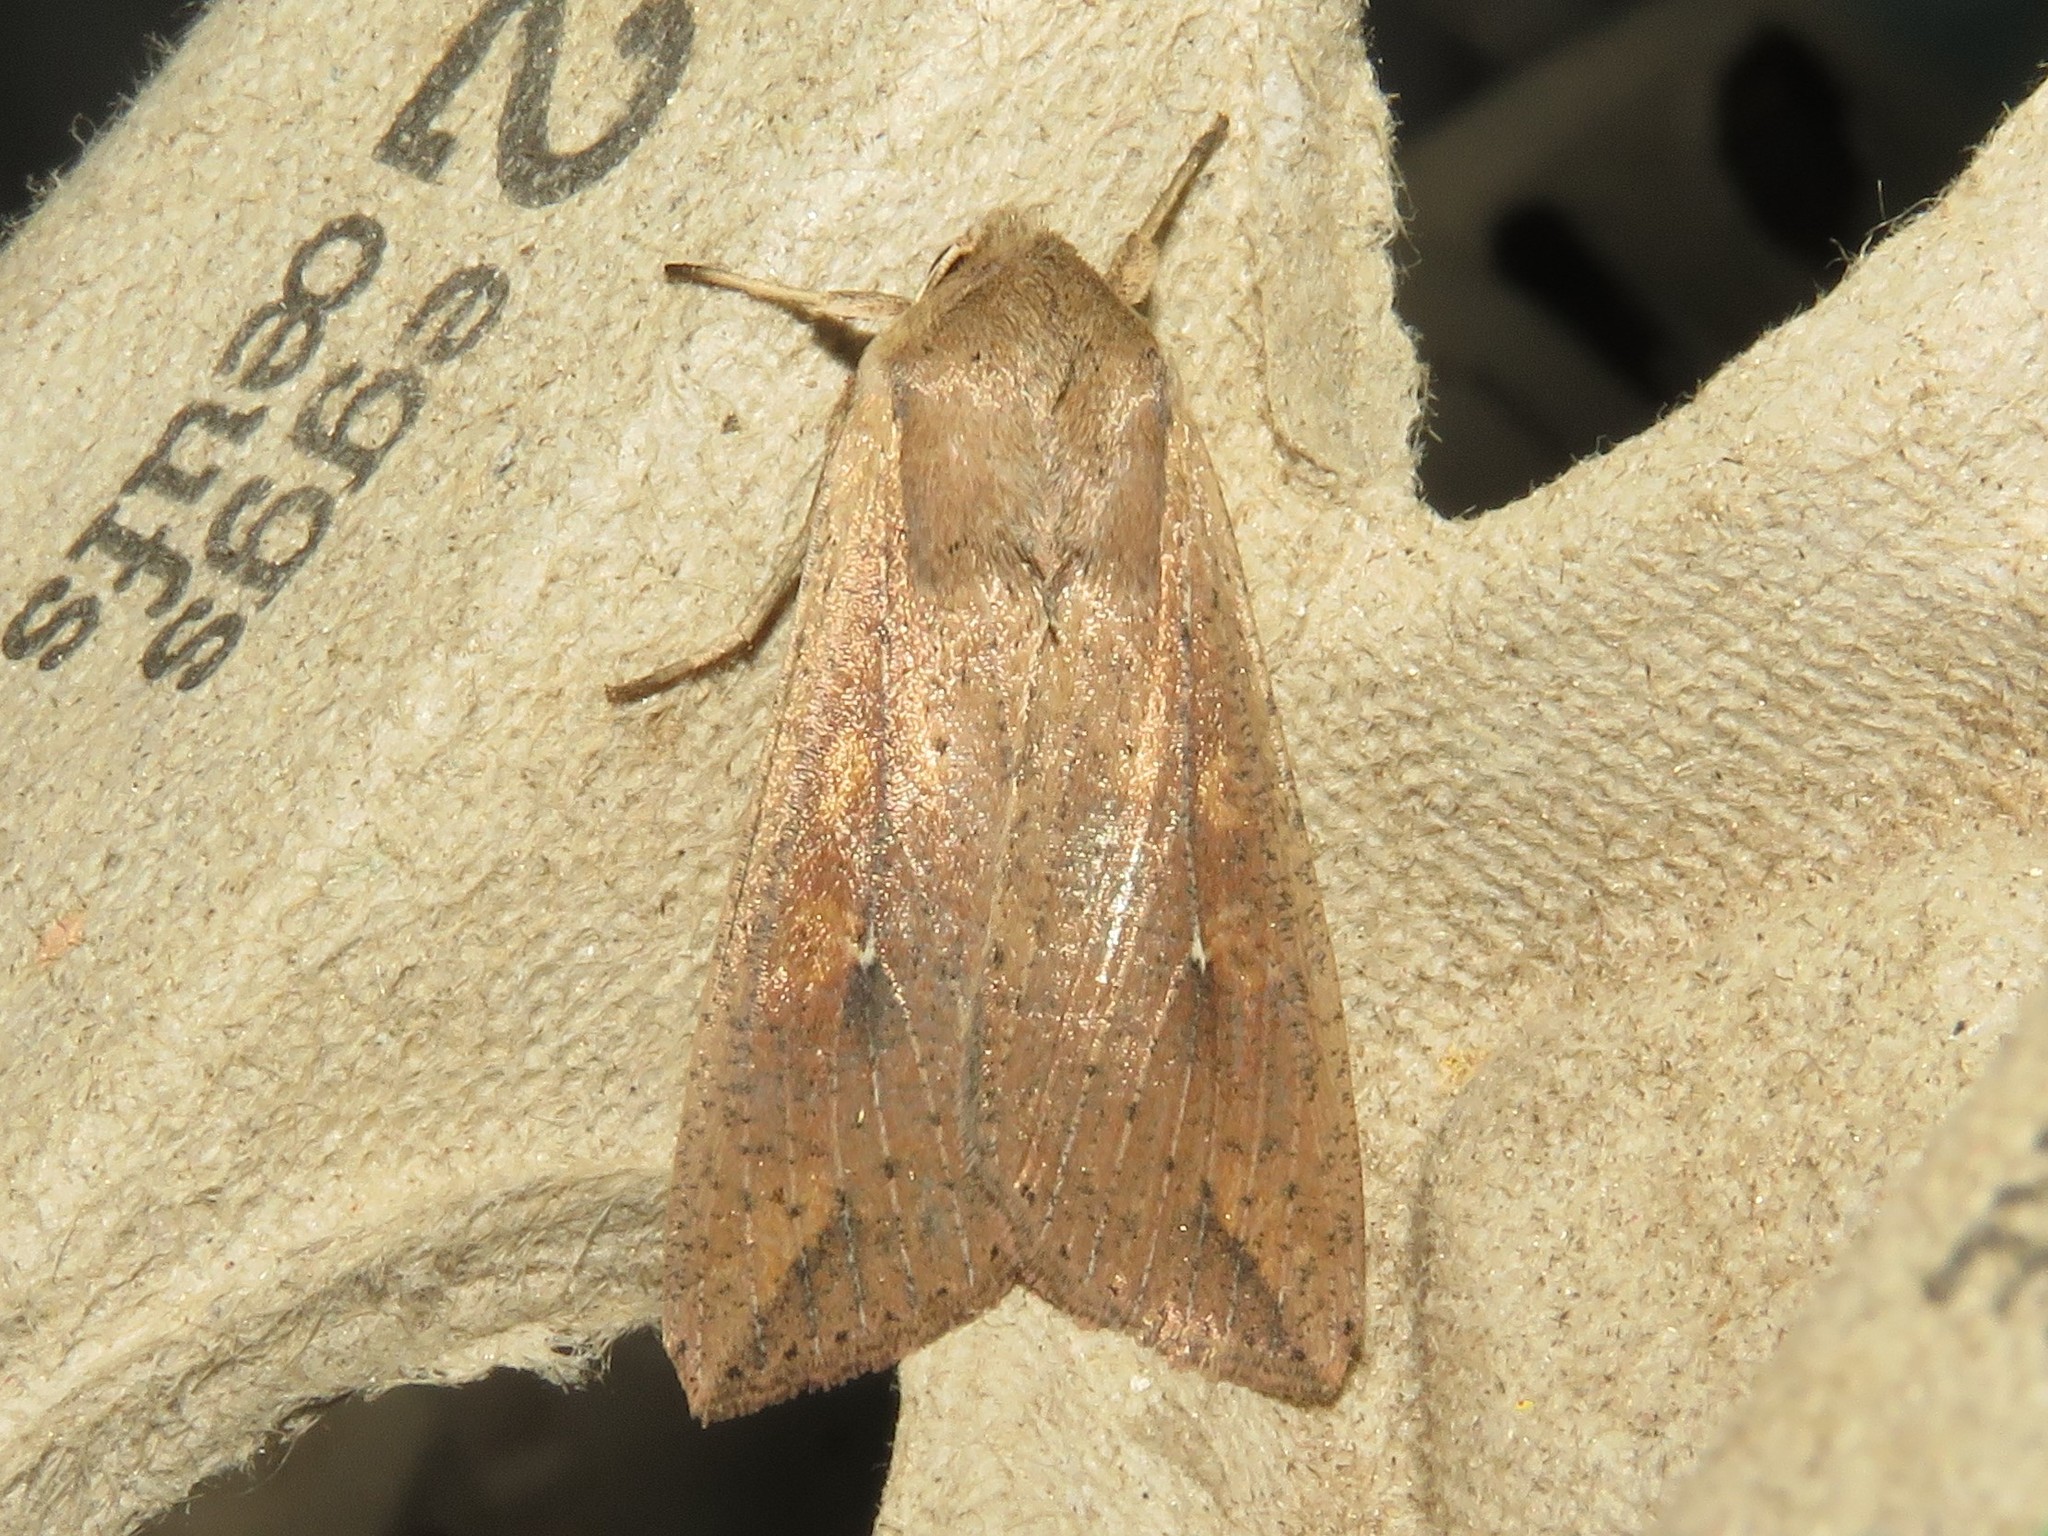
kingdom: Animalia
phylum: Arthropoda
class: Insecta
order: Lepidoptera
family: Noctuidae
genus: Mythimna
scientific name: Mythimna unipuncta
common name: White-speck
